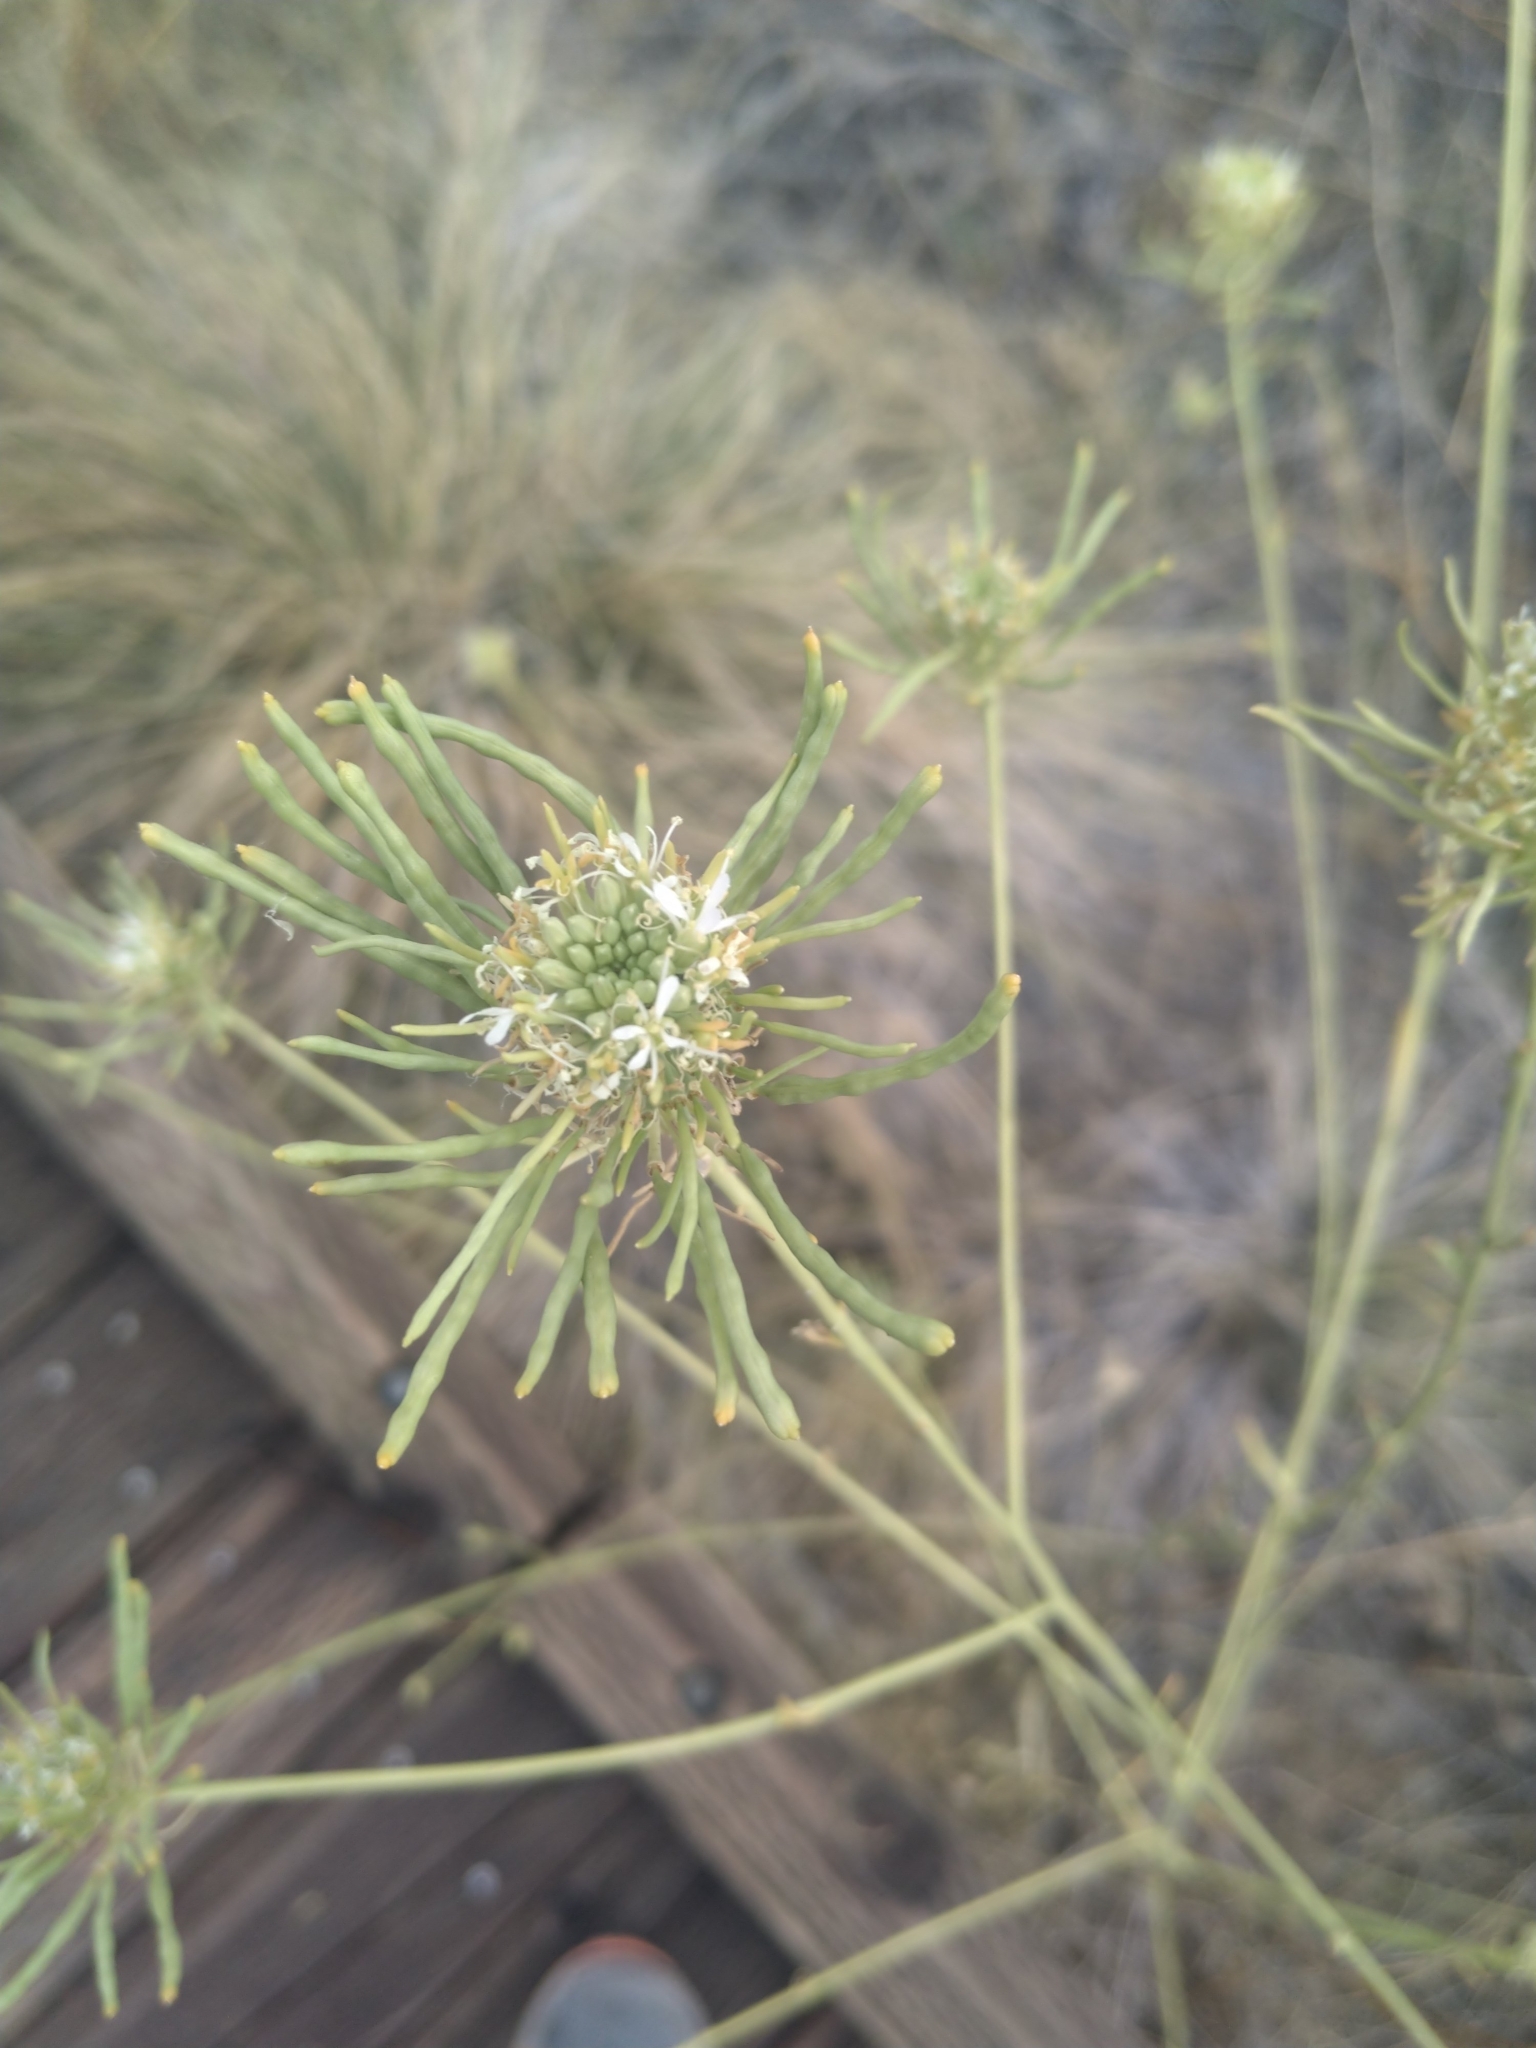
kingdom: Plantae
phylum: Tracheophyta
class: Magnoliopsida
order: Brassicales
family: Brassicaceae
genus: Thelypodium
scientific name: Thelypodium integrifolium
